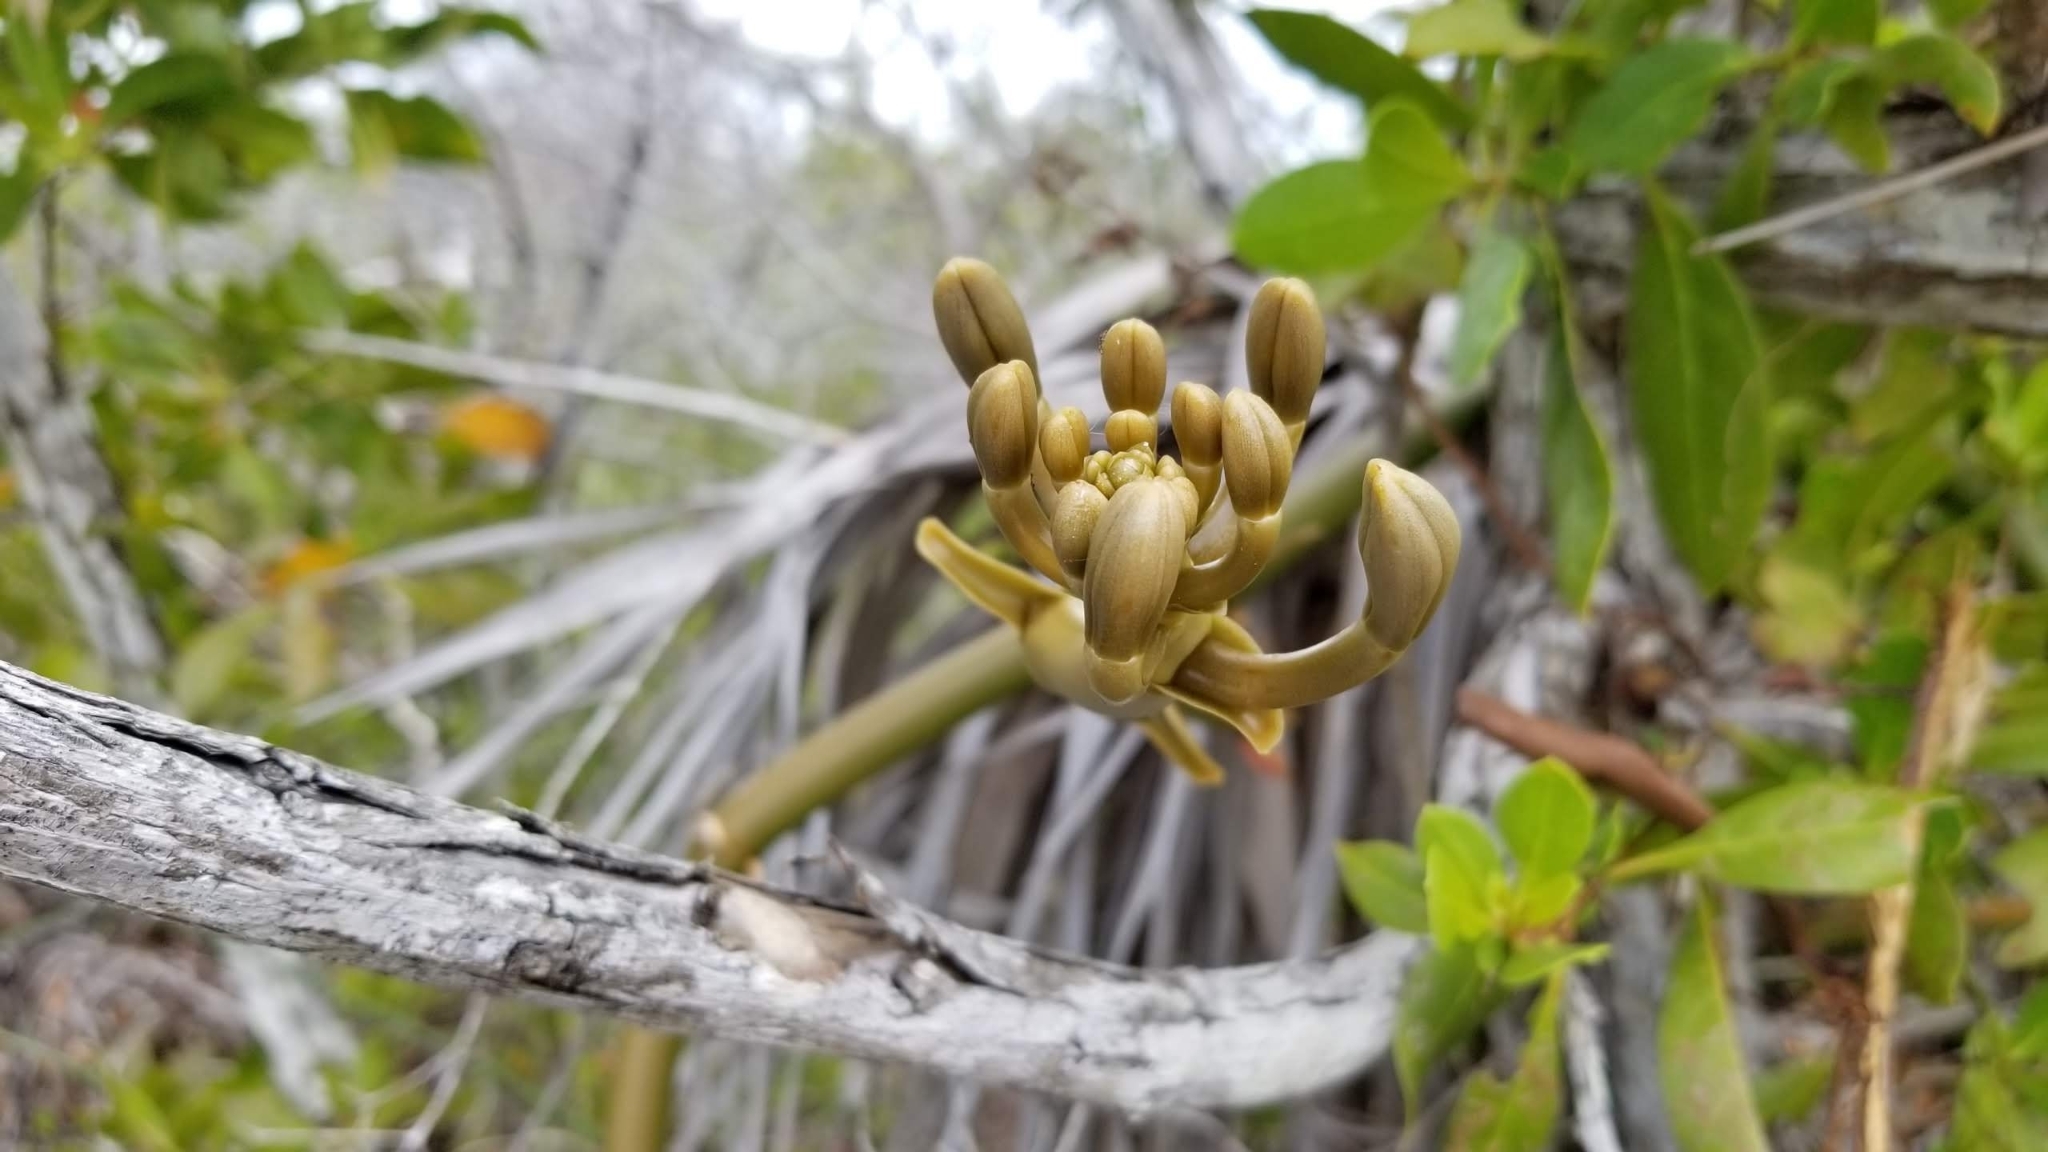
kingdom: Plantae
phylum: Tracheophyta
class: Liliopsida
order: Asparagales
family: Orchidaceae
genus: Vanilla
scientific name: Vanilla barbellata
